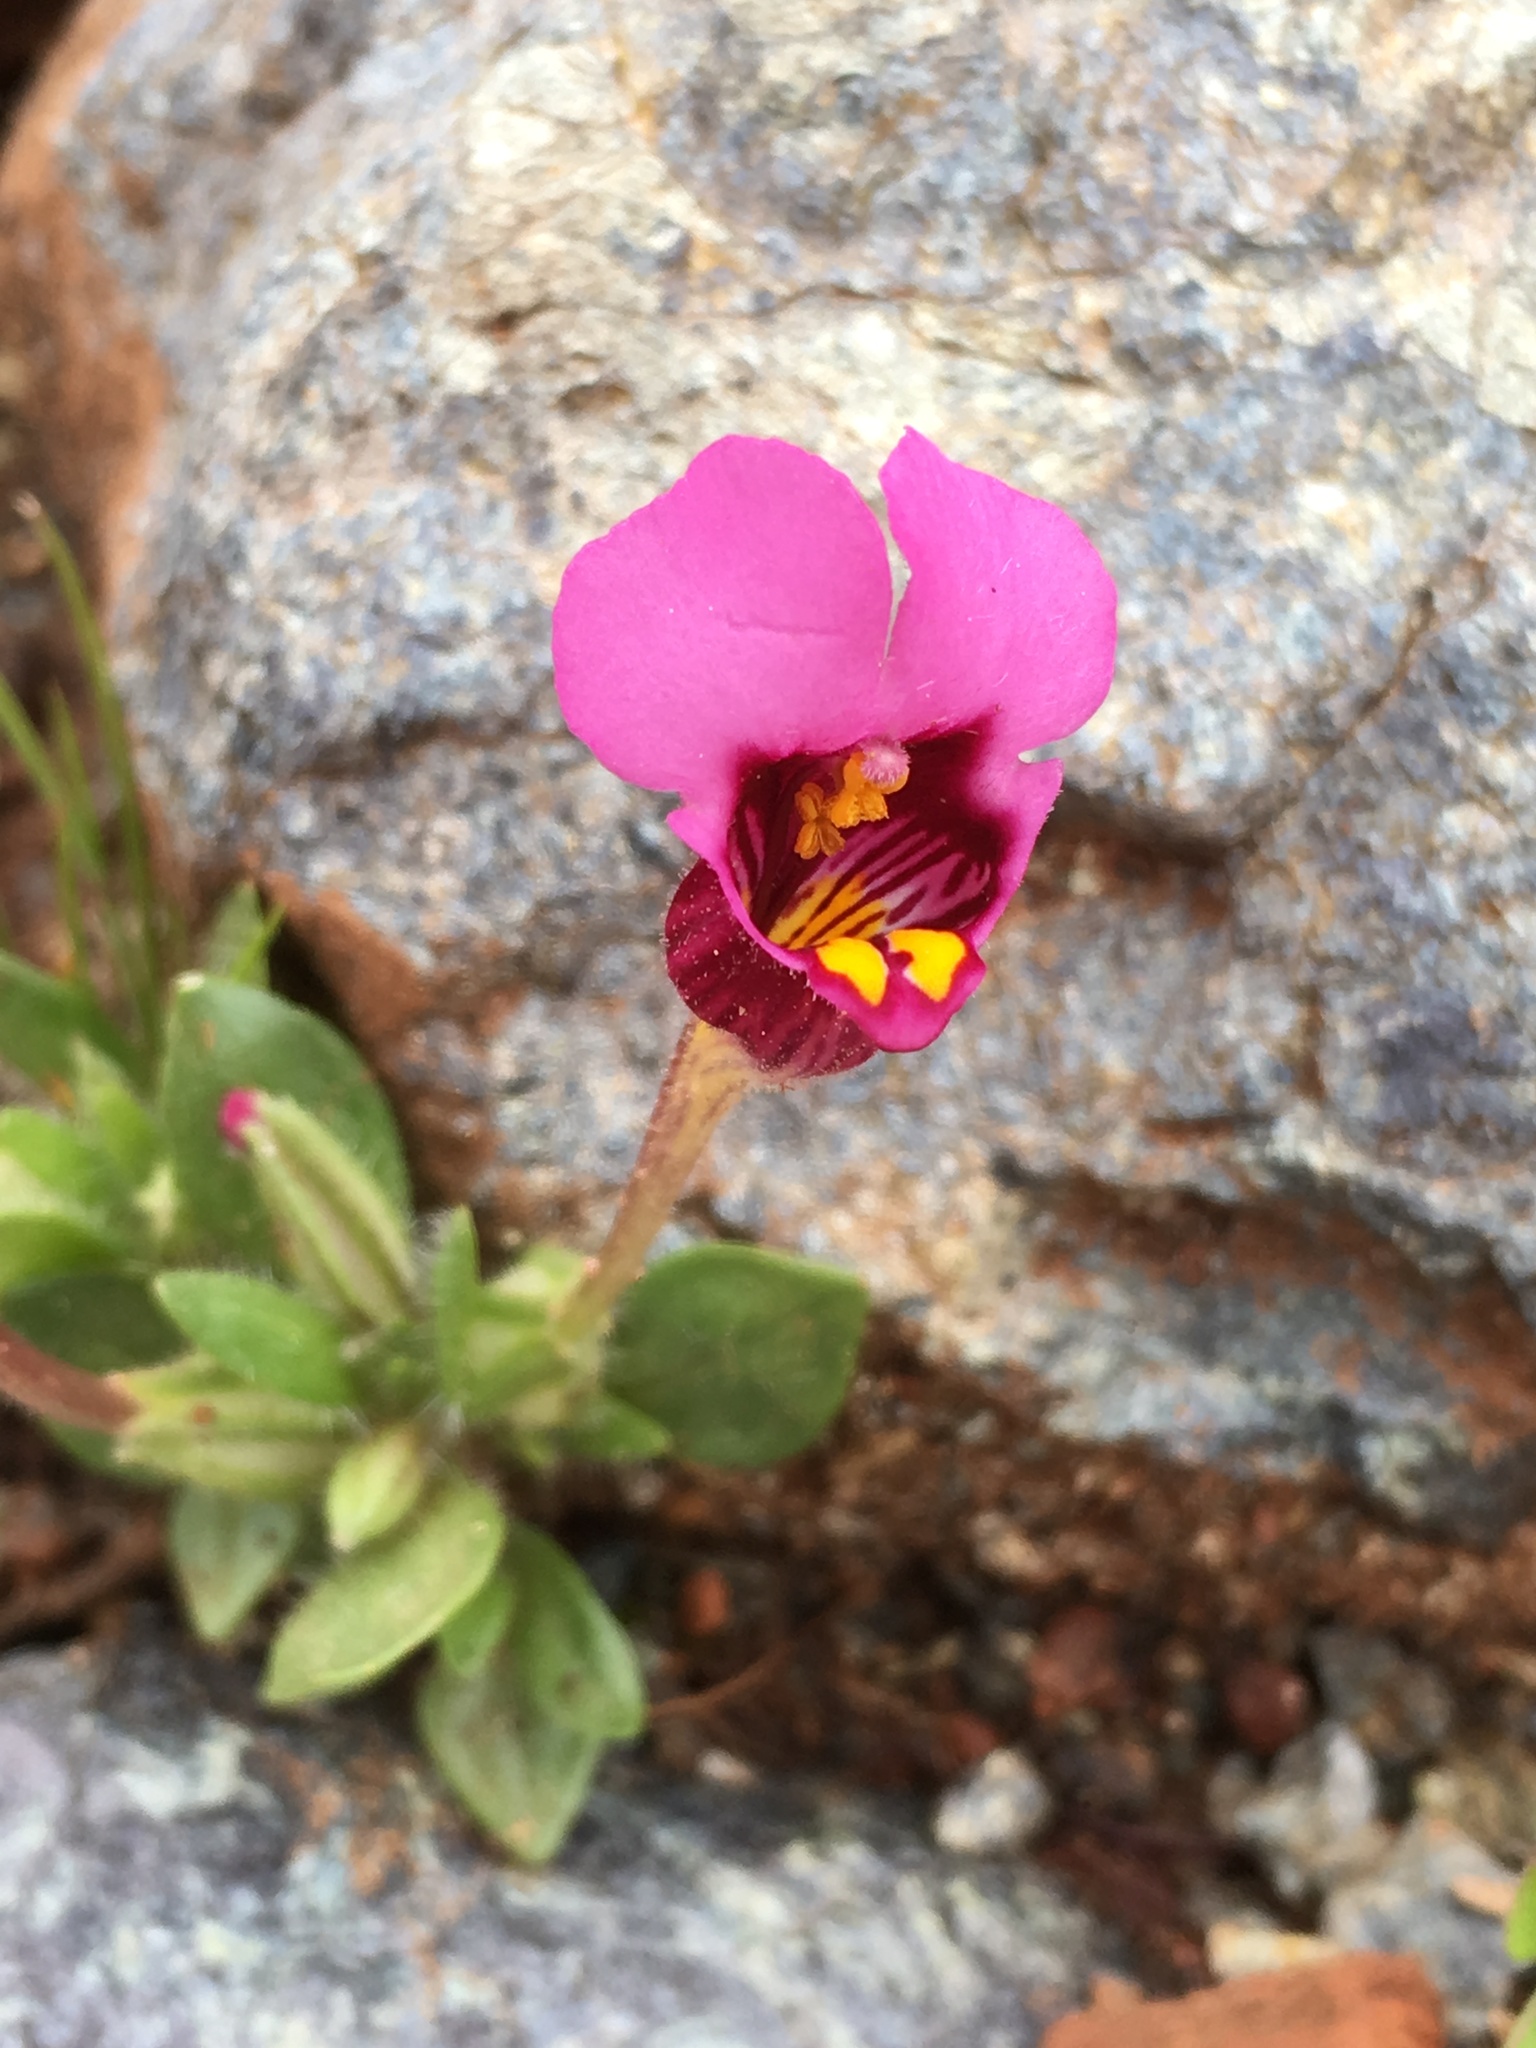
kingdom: Plantae
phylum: Tracheophyta
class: Magnoliopsida
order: Lamiales
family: Phrymaceae
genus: Diplacus
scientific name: Diplacus douglasii
